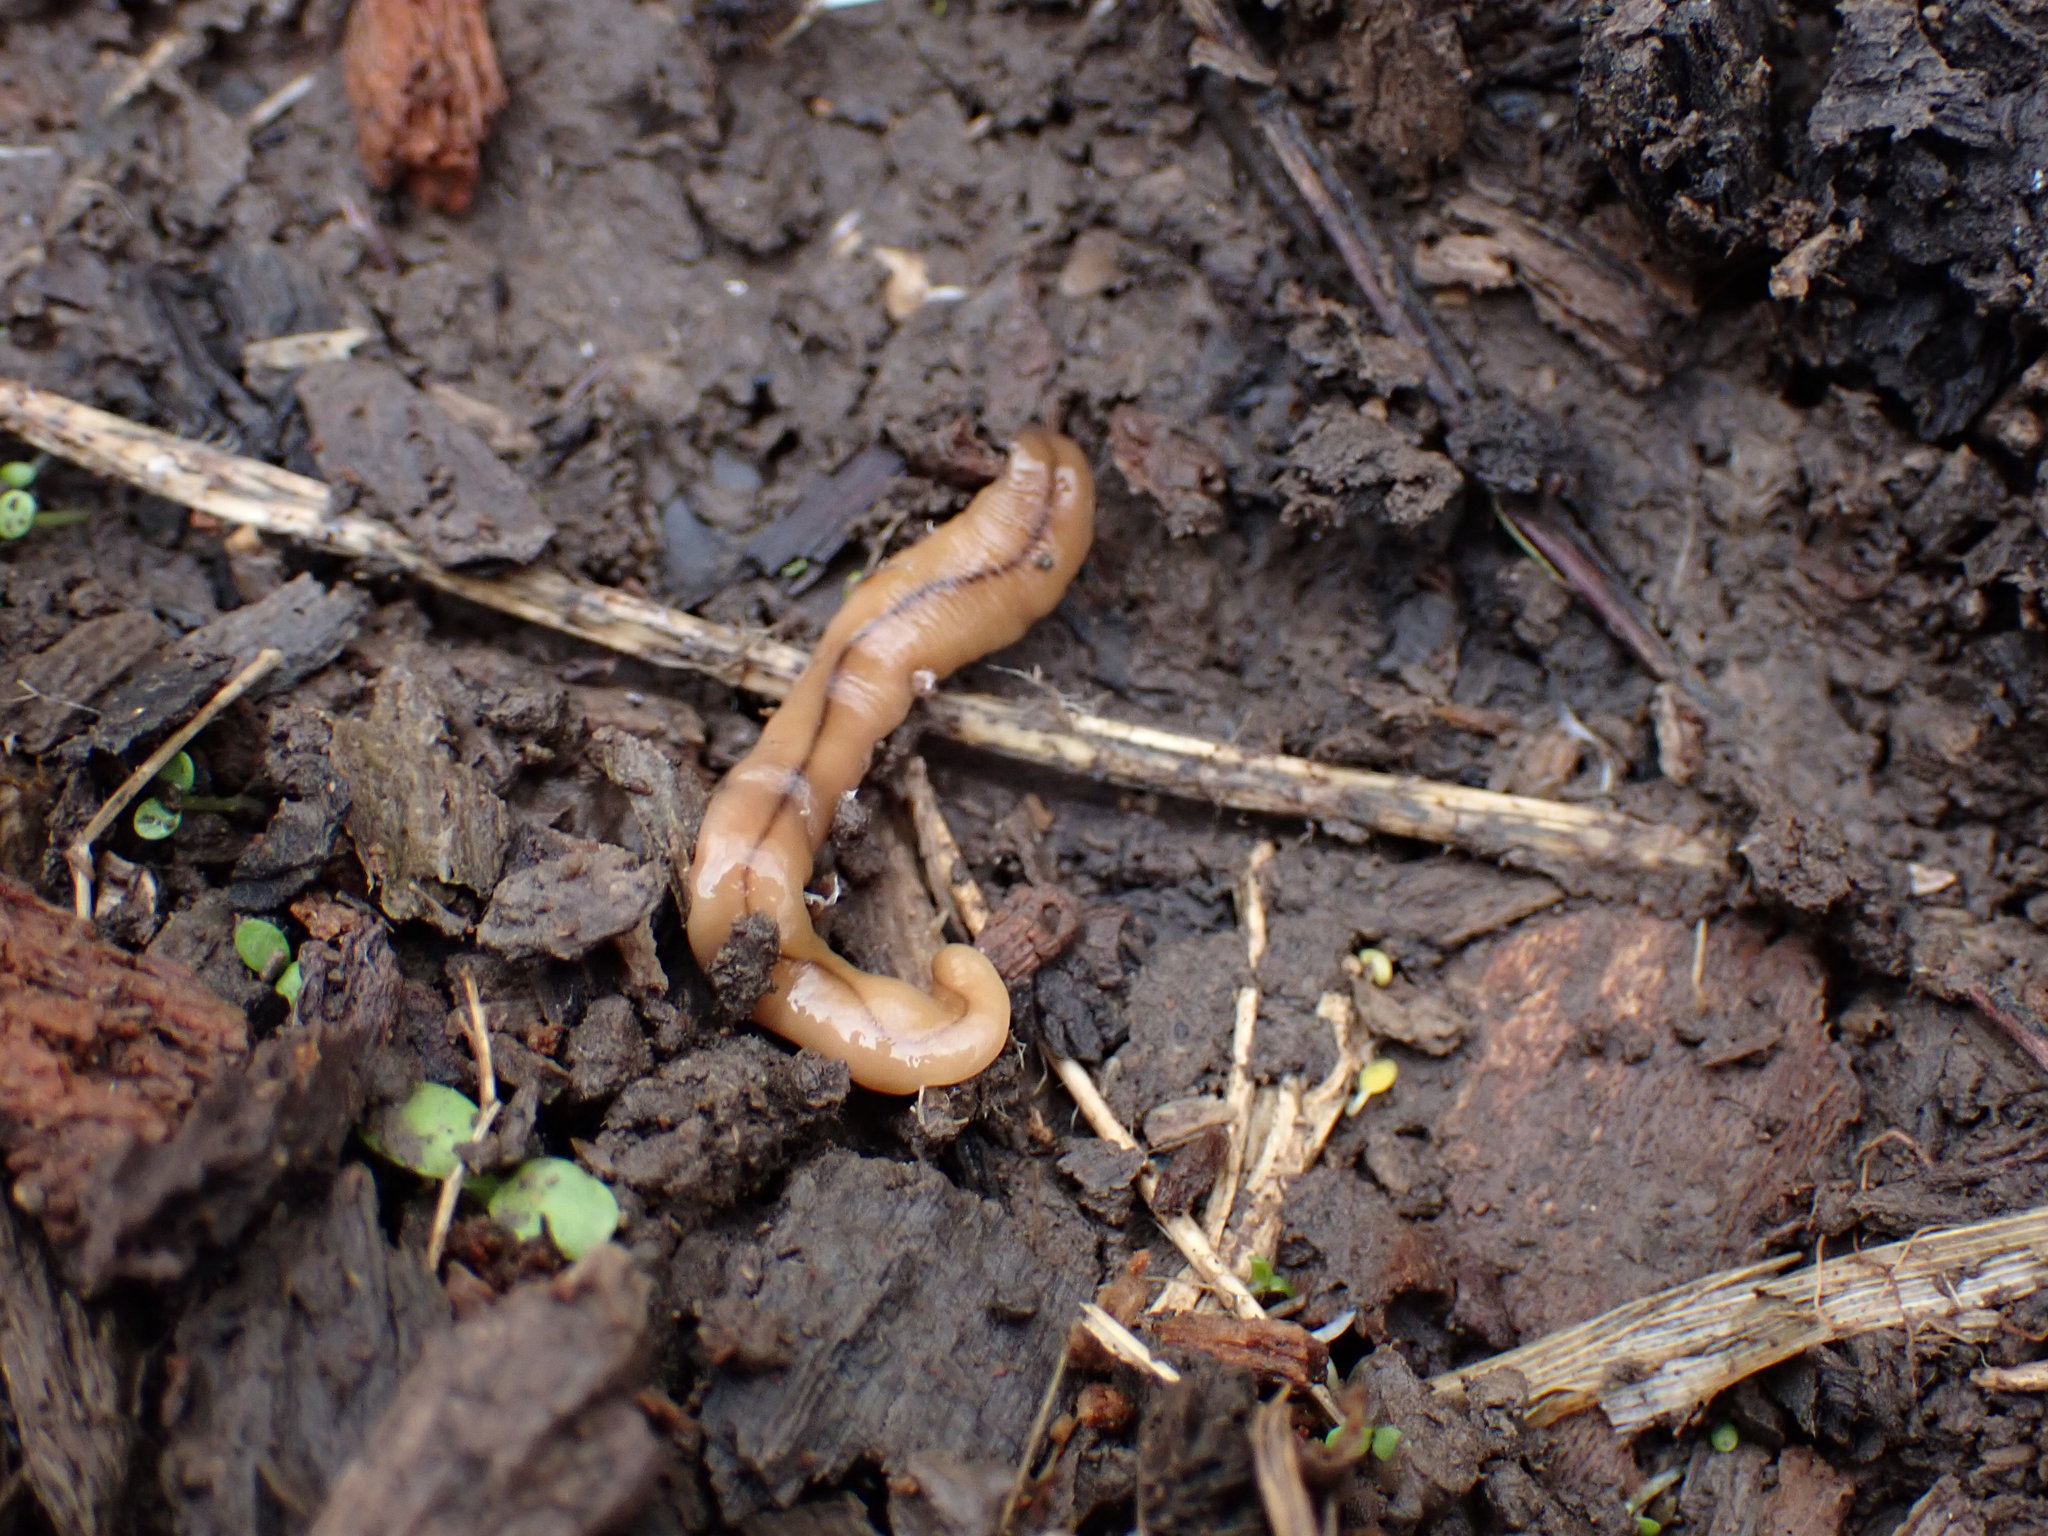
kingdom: Animalia
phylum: Platyhelminthes
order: Tricladida
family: Geoplanidae
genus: Bipalium
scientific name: Bipalium adventitium
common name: Land planarian
